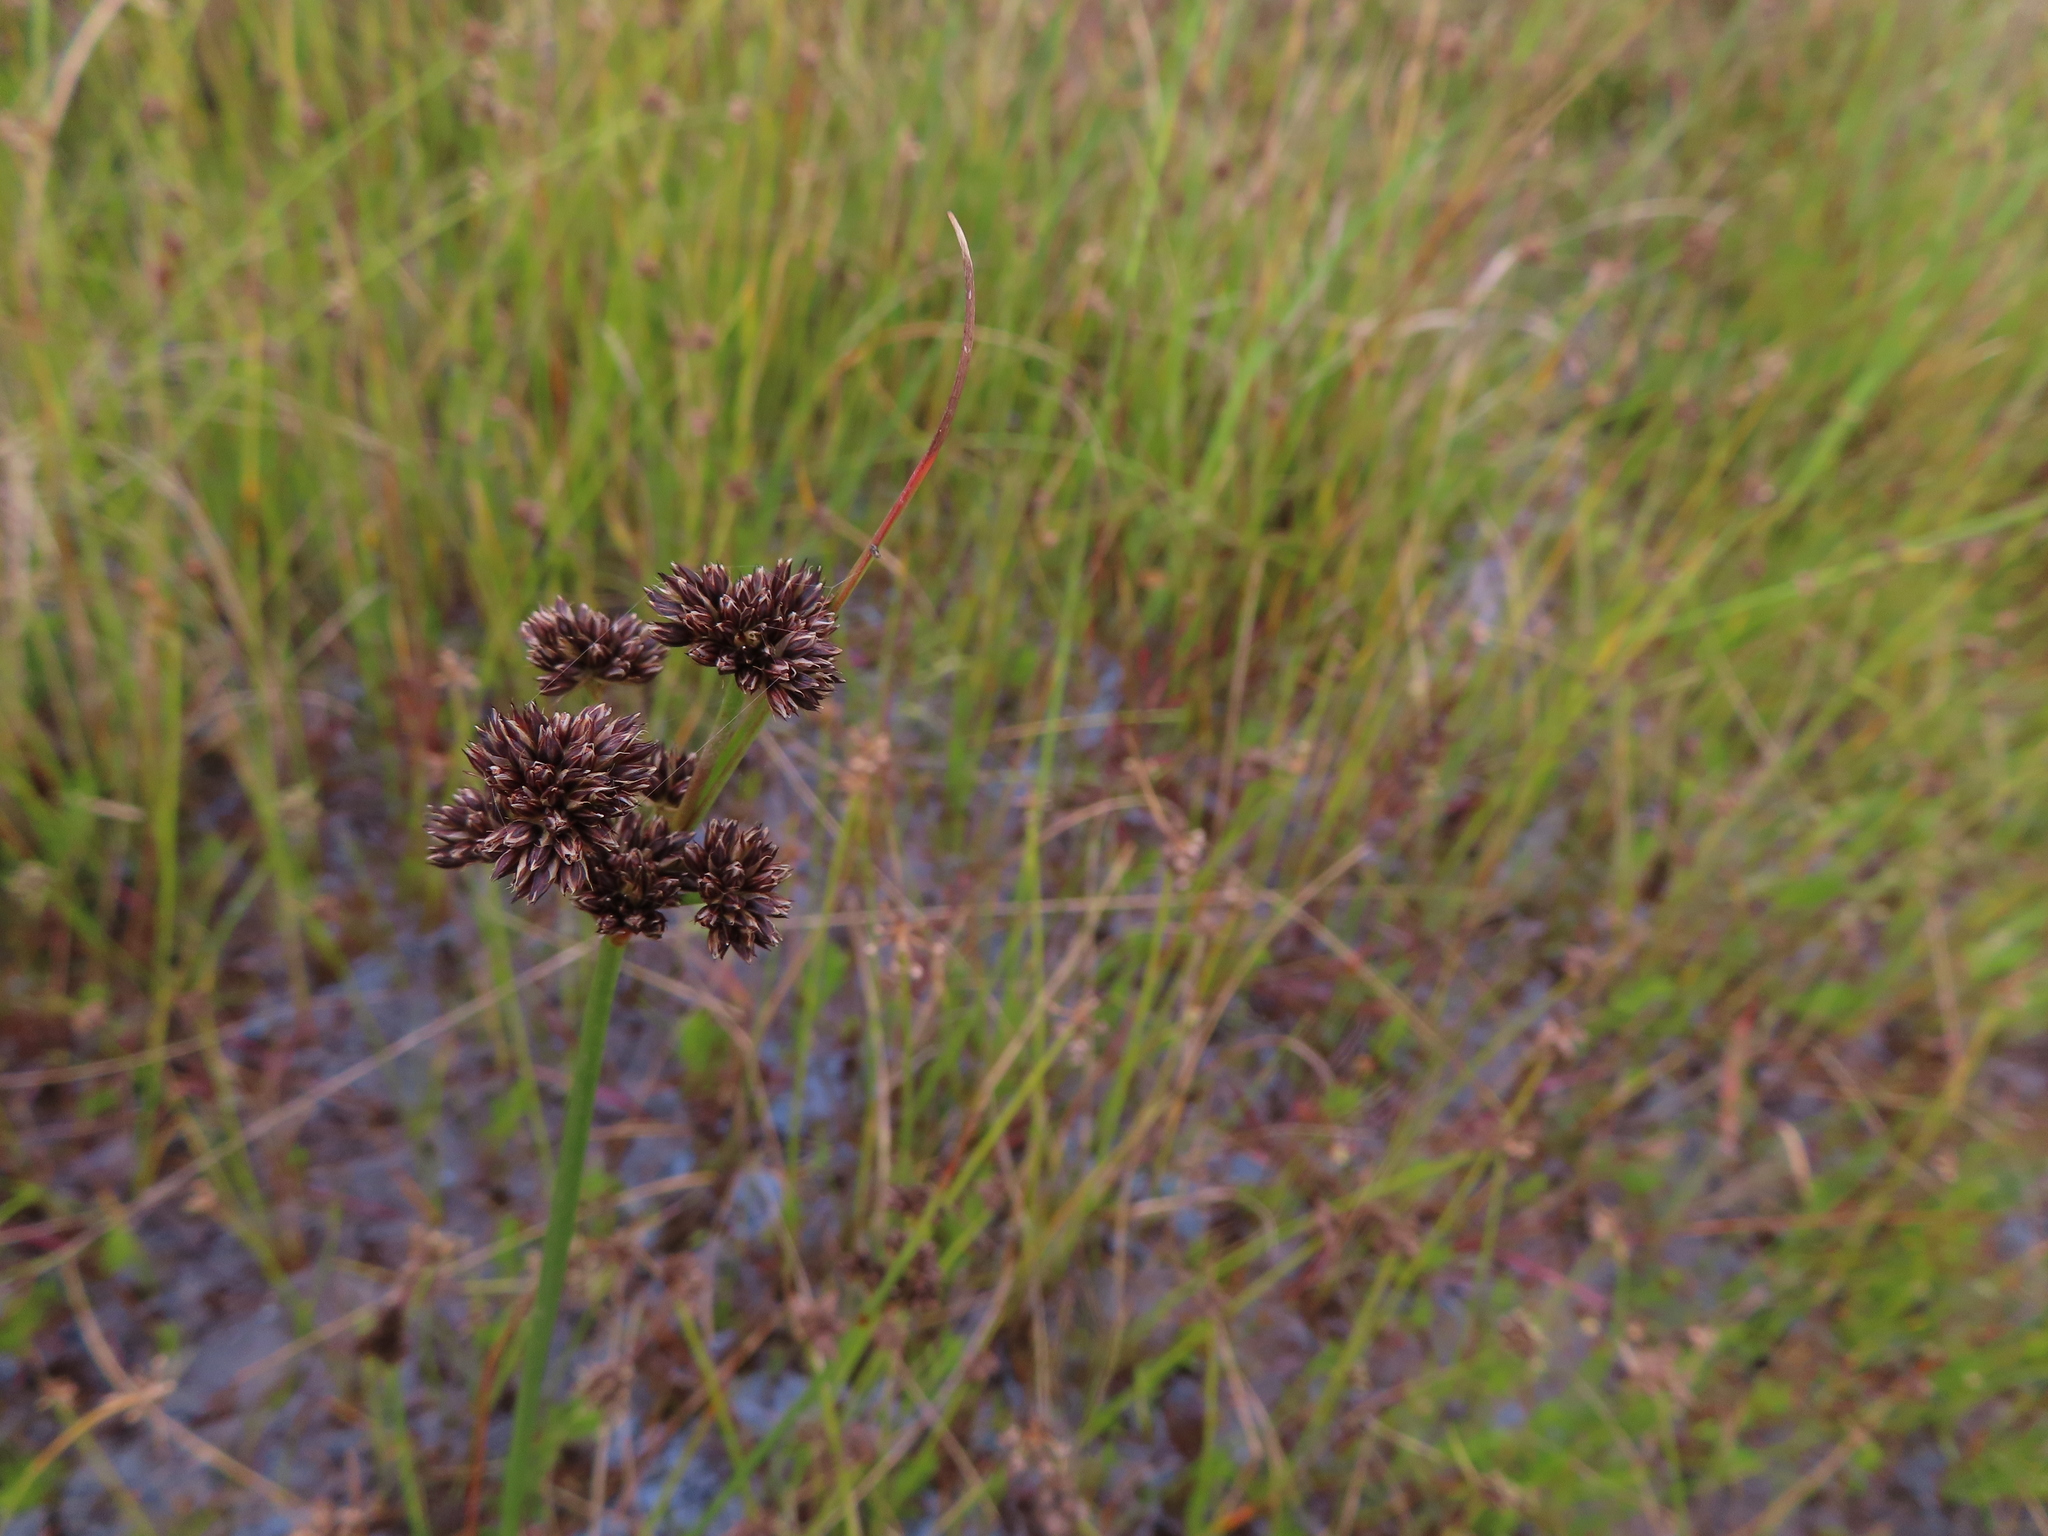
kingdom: Plantae
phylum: Tracheophyta
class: Liliopsida
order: Poales
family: Juncaceae
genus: Juncus
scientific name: Juncus oxycarpus
